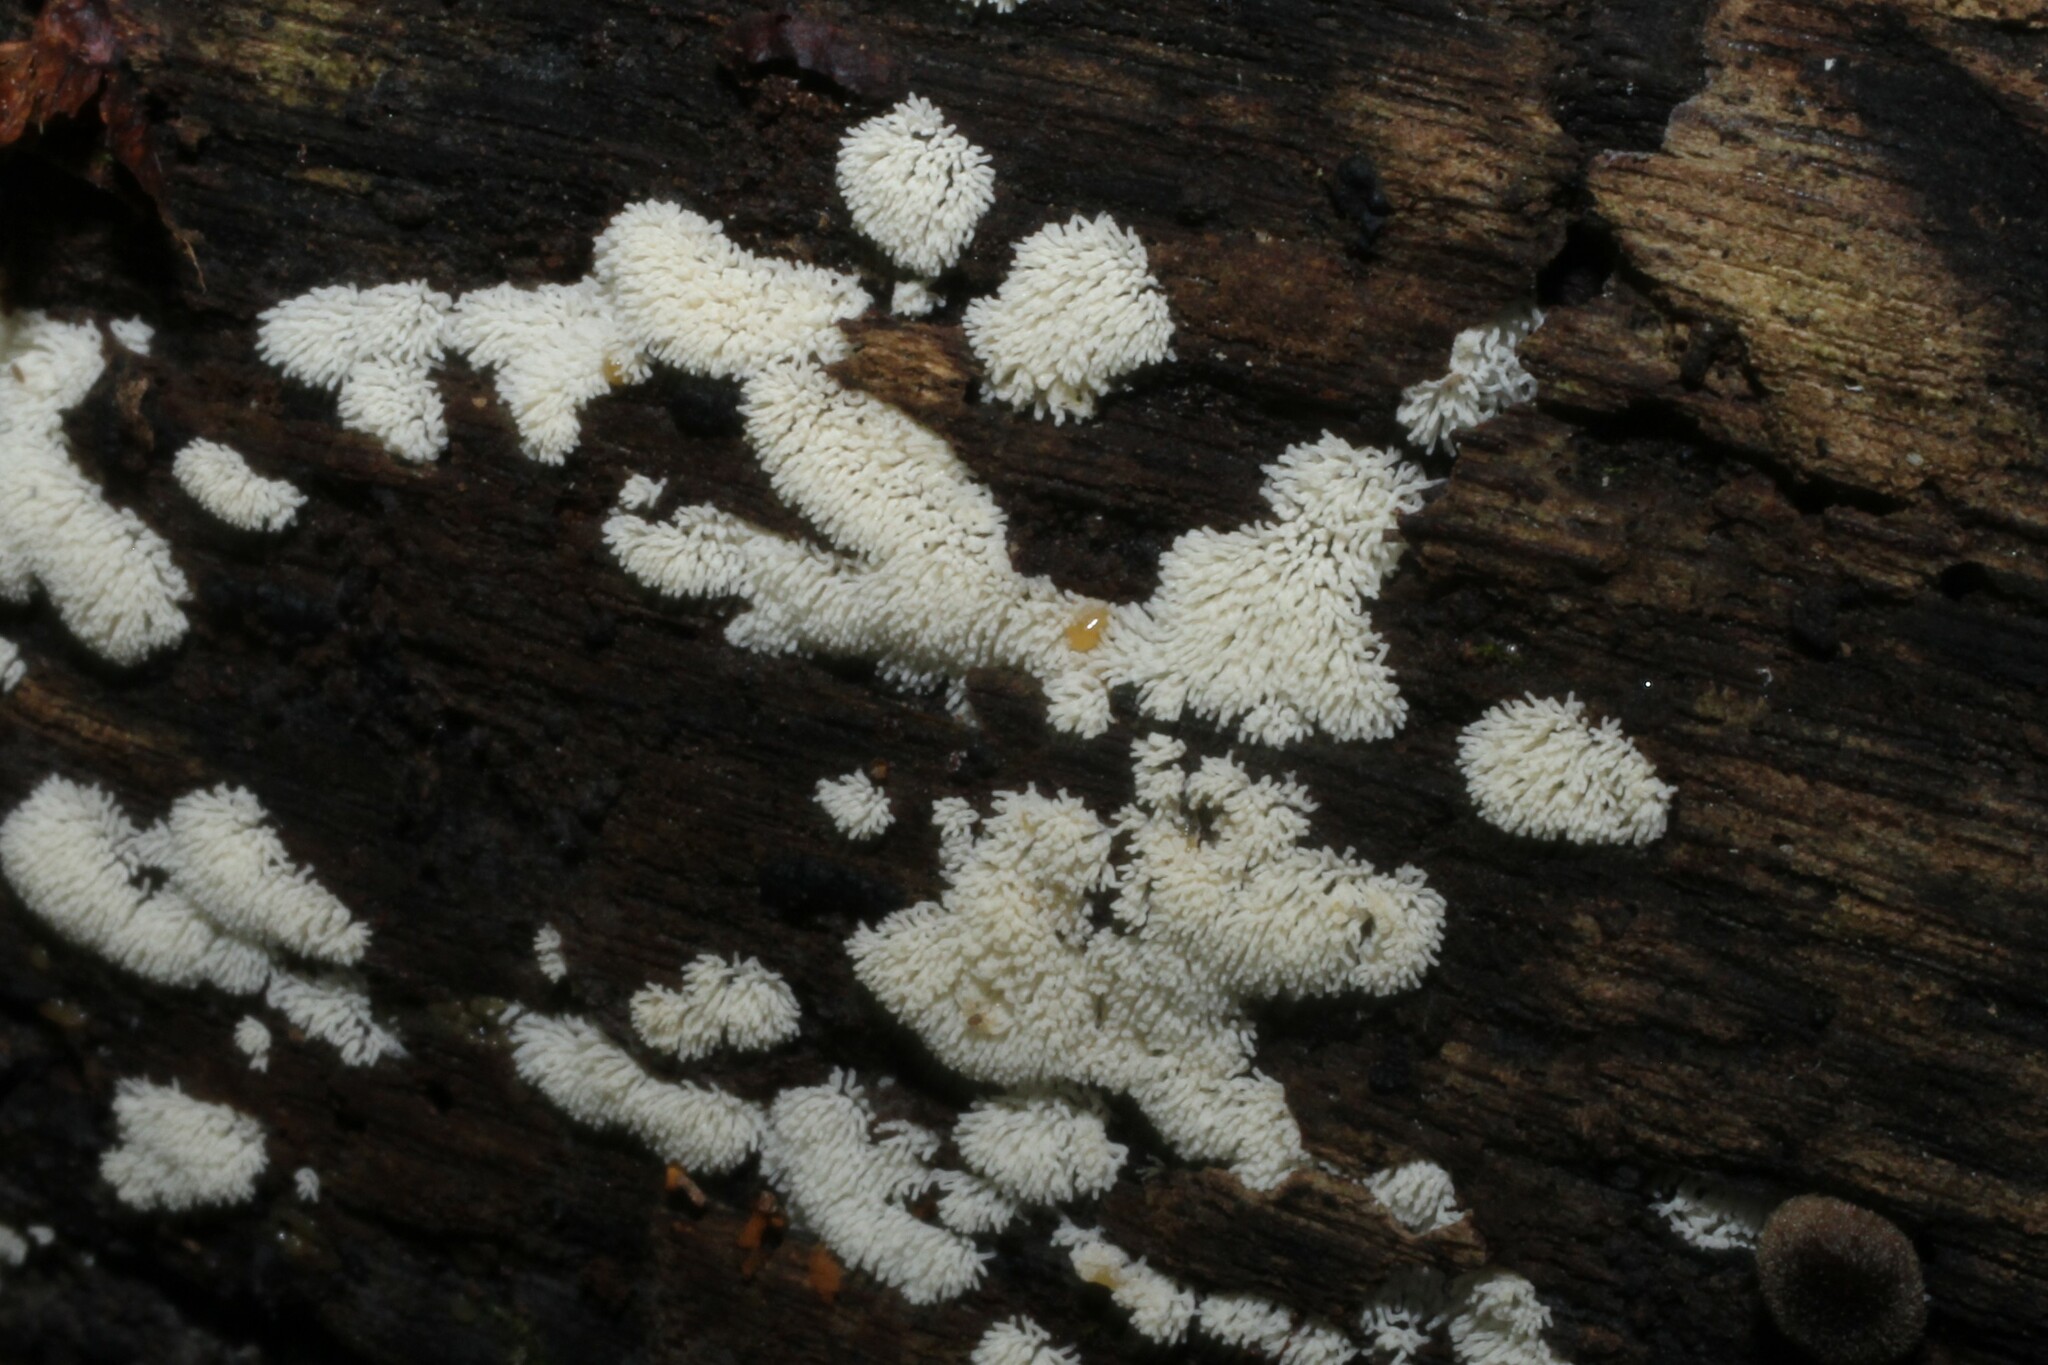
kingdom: Protozoa
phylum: Mycetozoa
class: Protosteliomycetes
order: Ceratiomyxales
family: Ceratiomyxaceae
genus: Ceratiomyxa
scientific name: Ceratiomyxa fruticulosa
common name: Honeycomb coral slime mold
